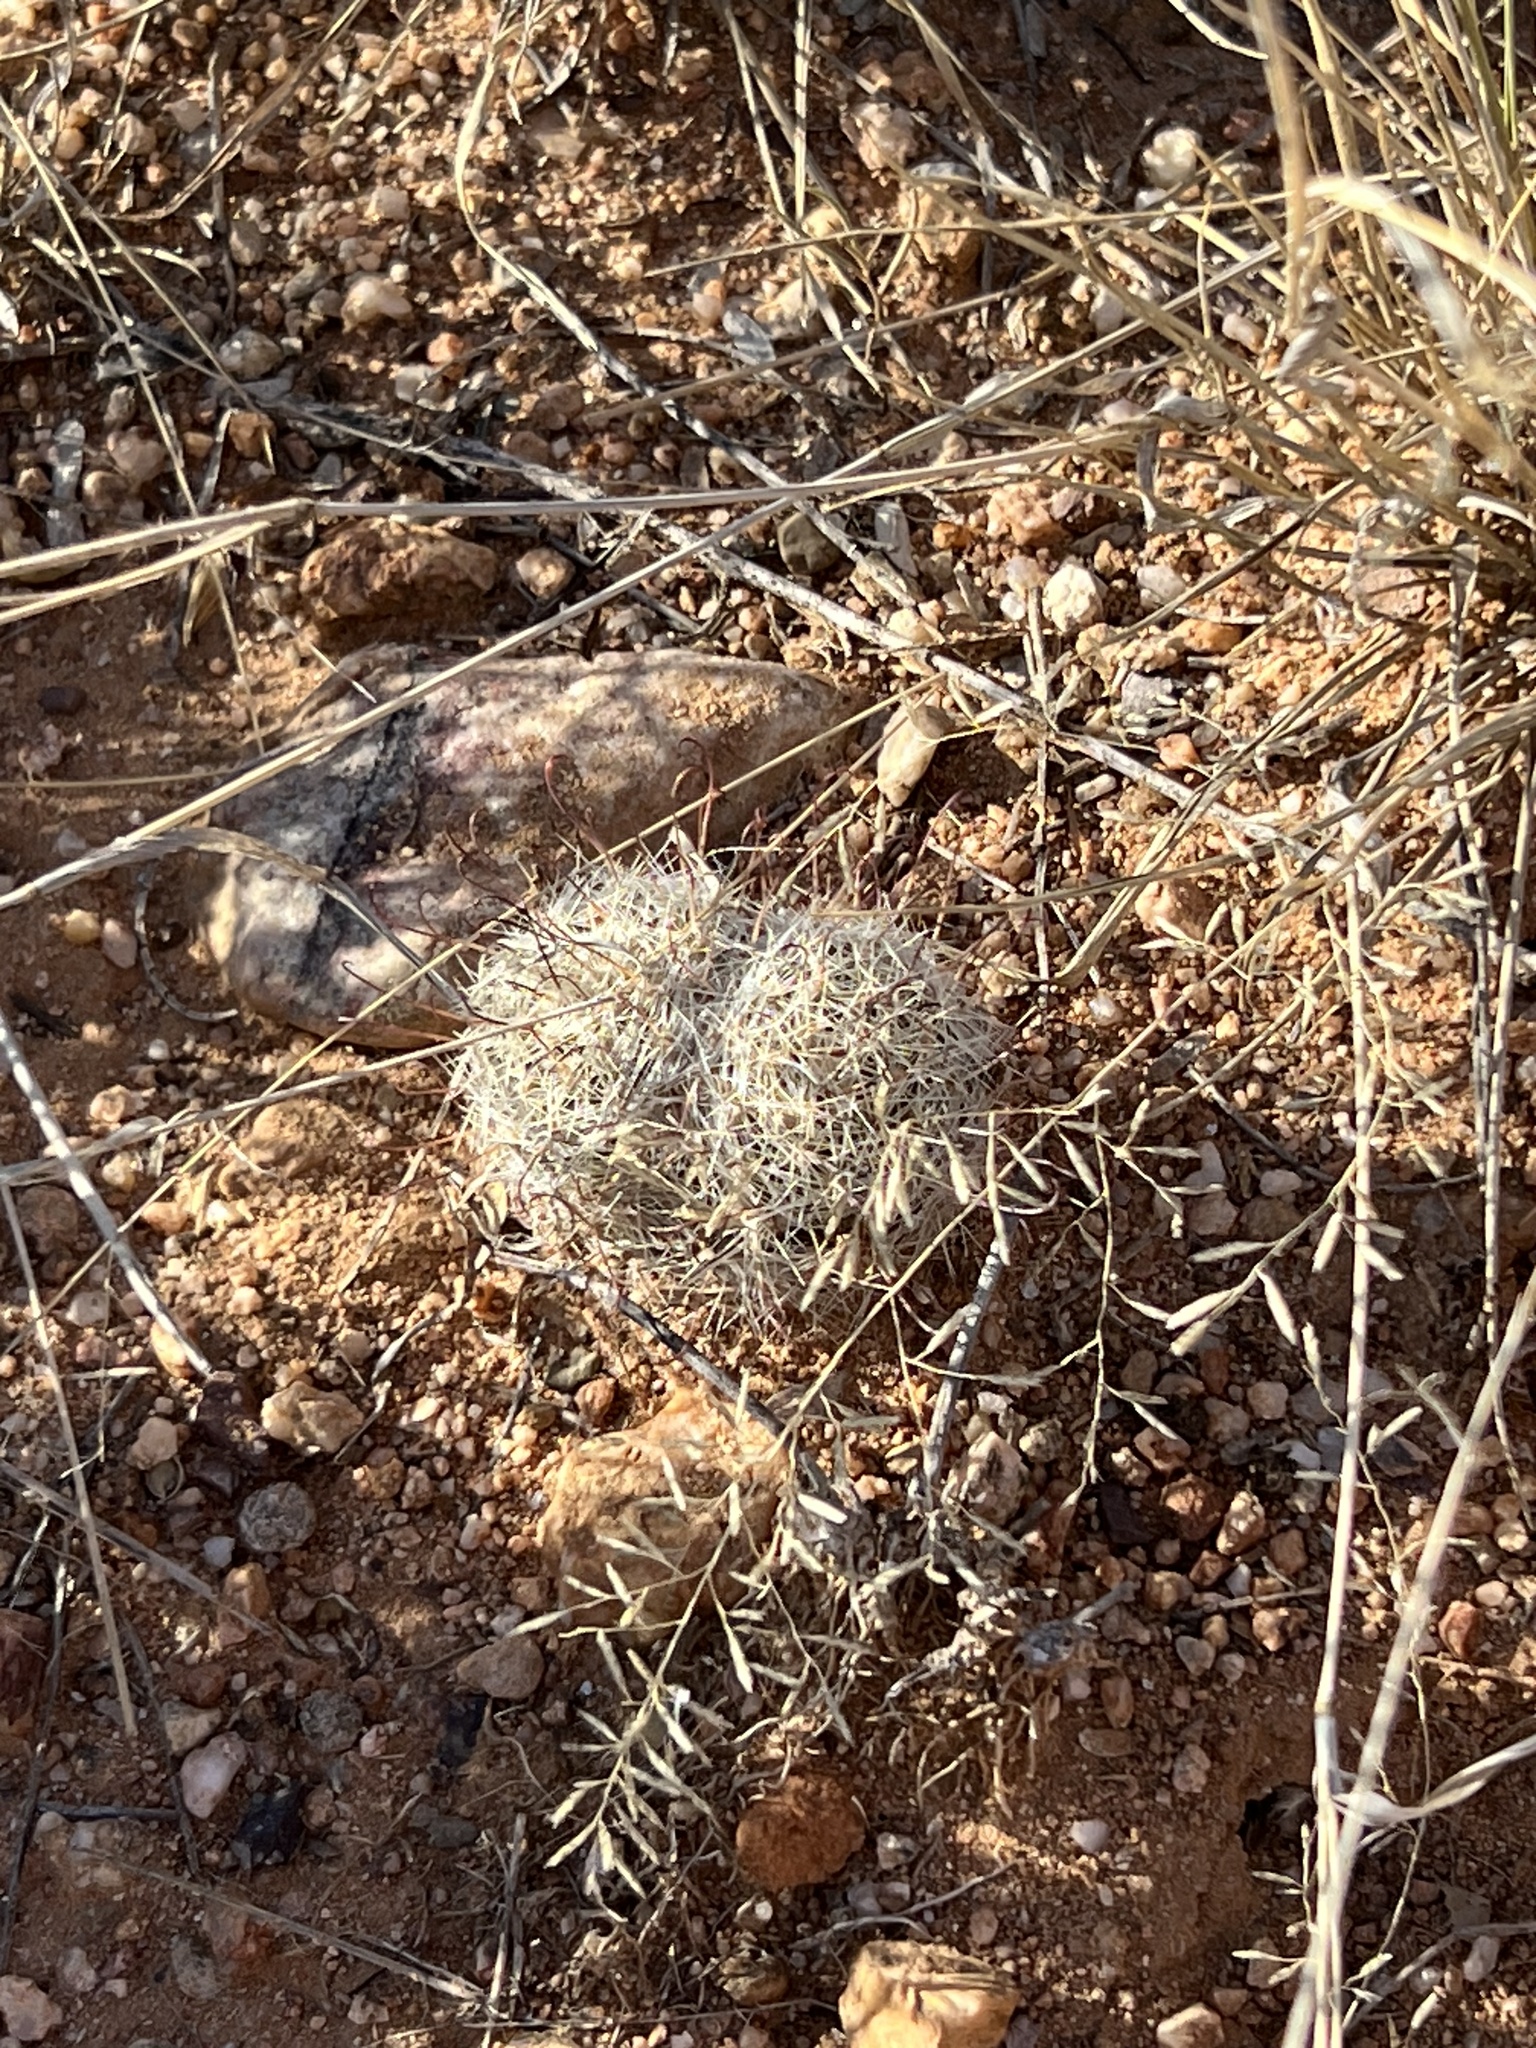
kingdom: Plantae
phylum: Tracheophyta
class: Magnoliopsida
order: Caryophyllales
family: Cactaceae
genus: Cochemiea
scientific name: Cochemiea grahamii
